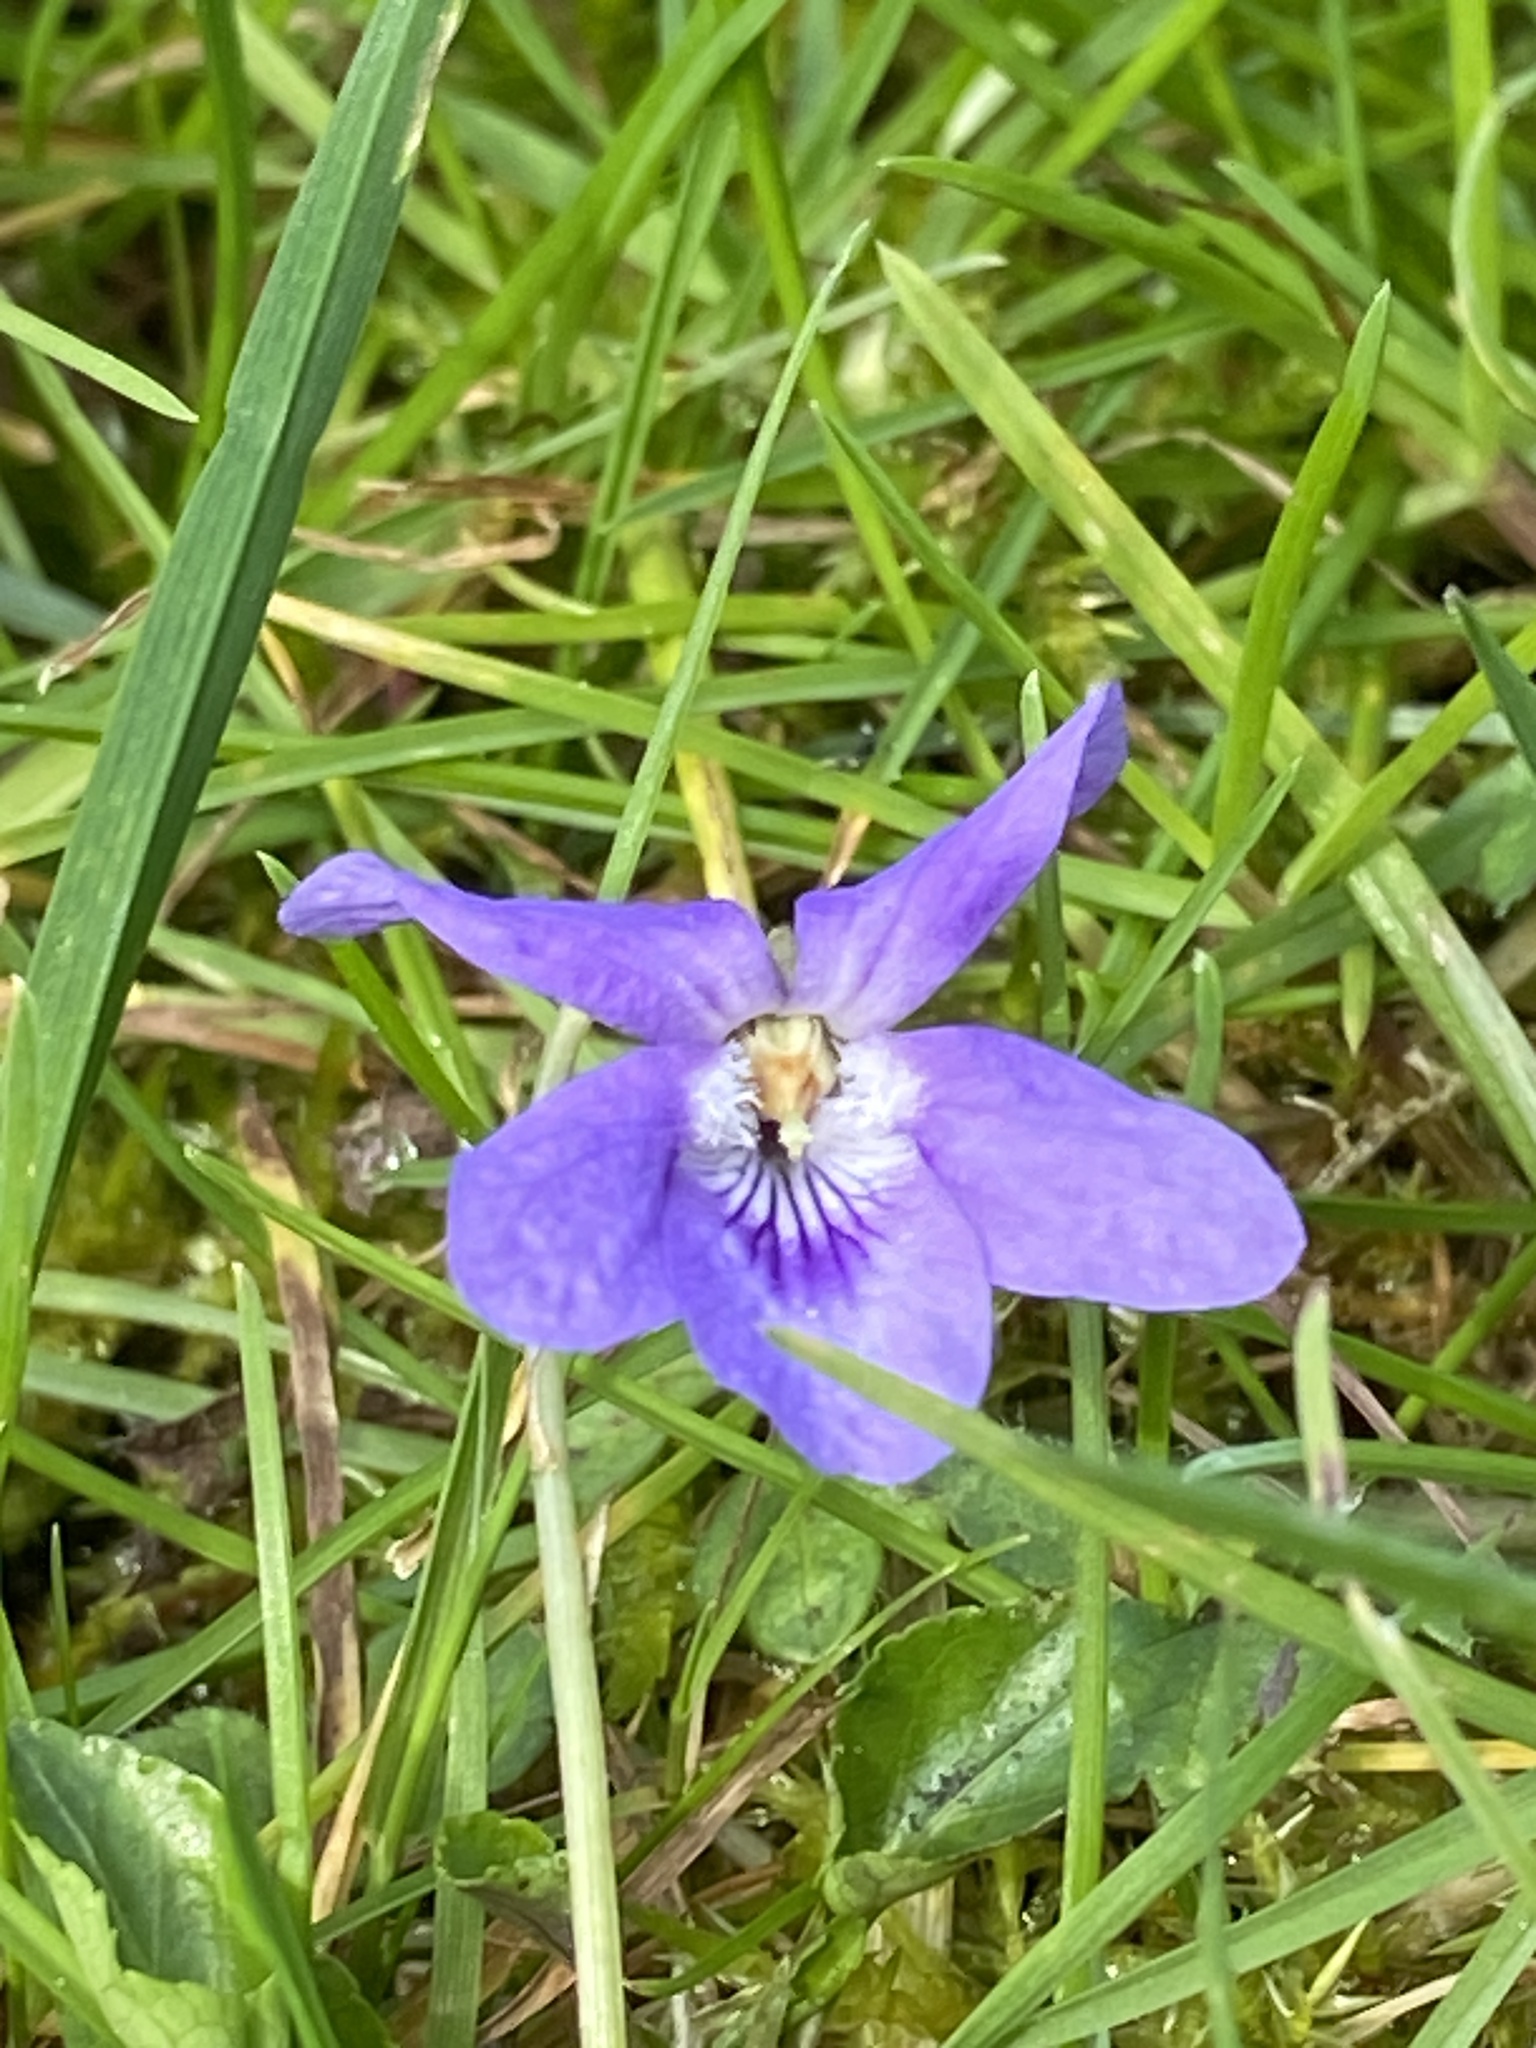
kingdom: Plantae
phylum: Tracheophyta
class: Magnoliopsida
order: Malpighiales
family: Violaceae
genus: Viola
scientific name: Viola riviniana
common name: Common dog-violet
